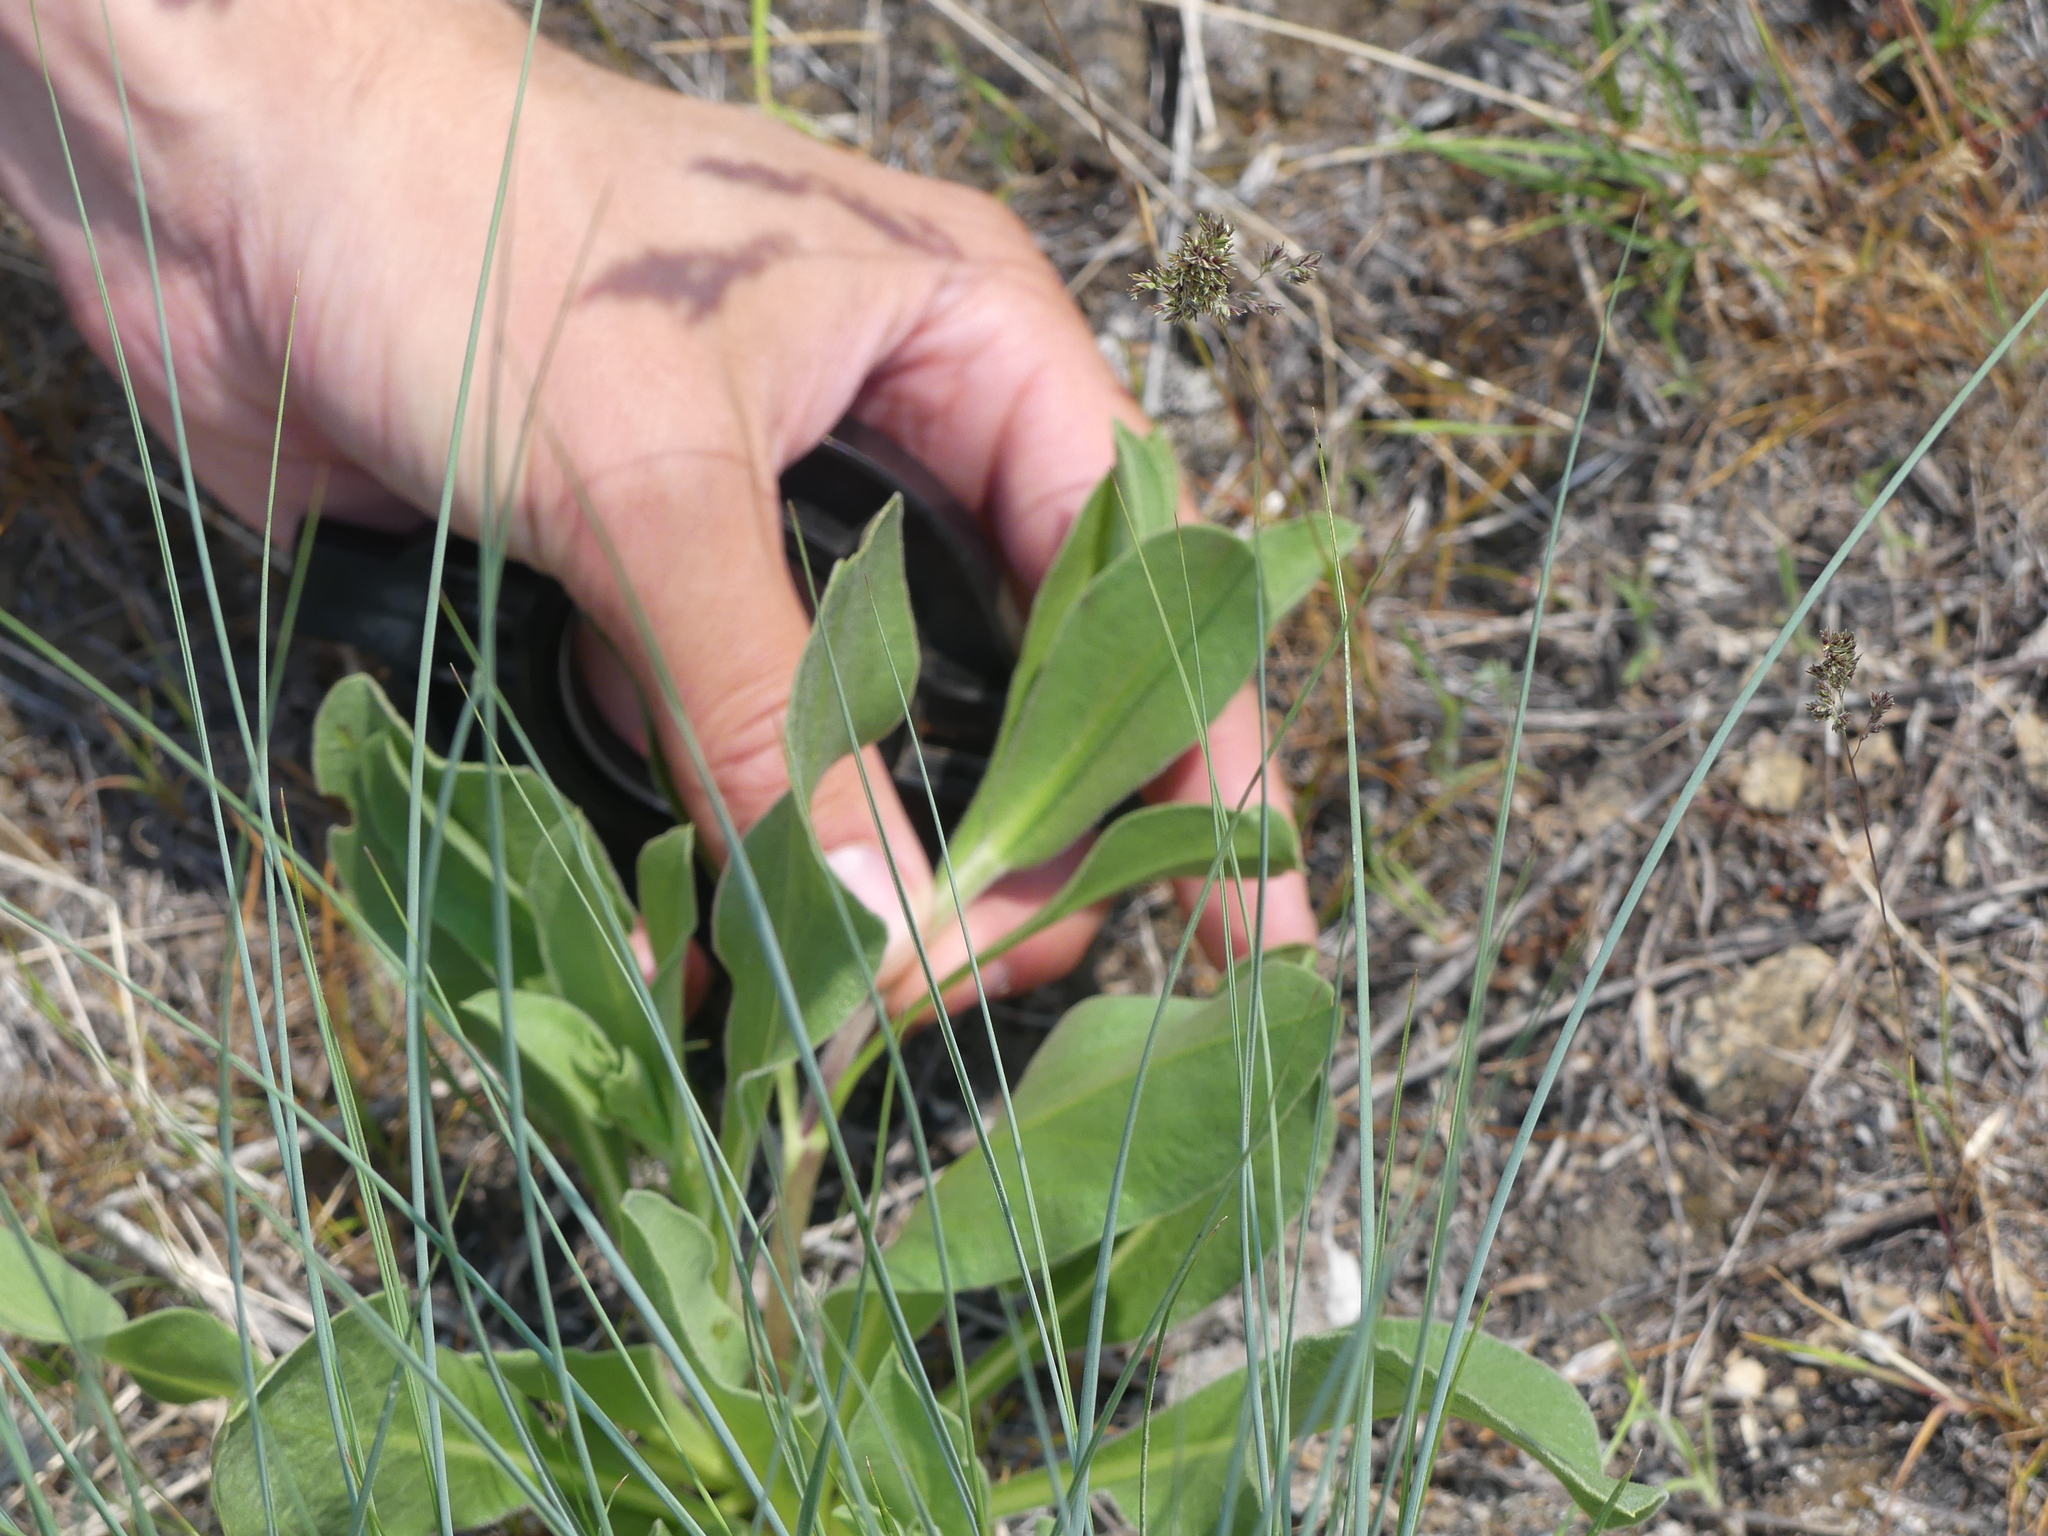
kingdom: Plantae
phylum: Tracheophyta
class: Magnoliopsida
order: Asterales
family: Asteraceae
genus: Pyrrocoma
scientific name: Pyrrocoma carthamoides
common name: Large-flower goldenweed
